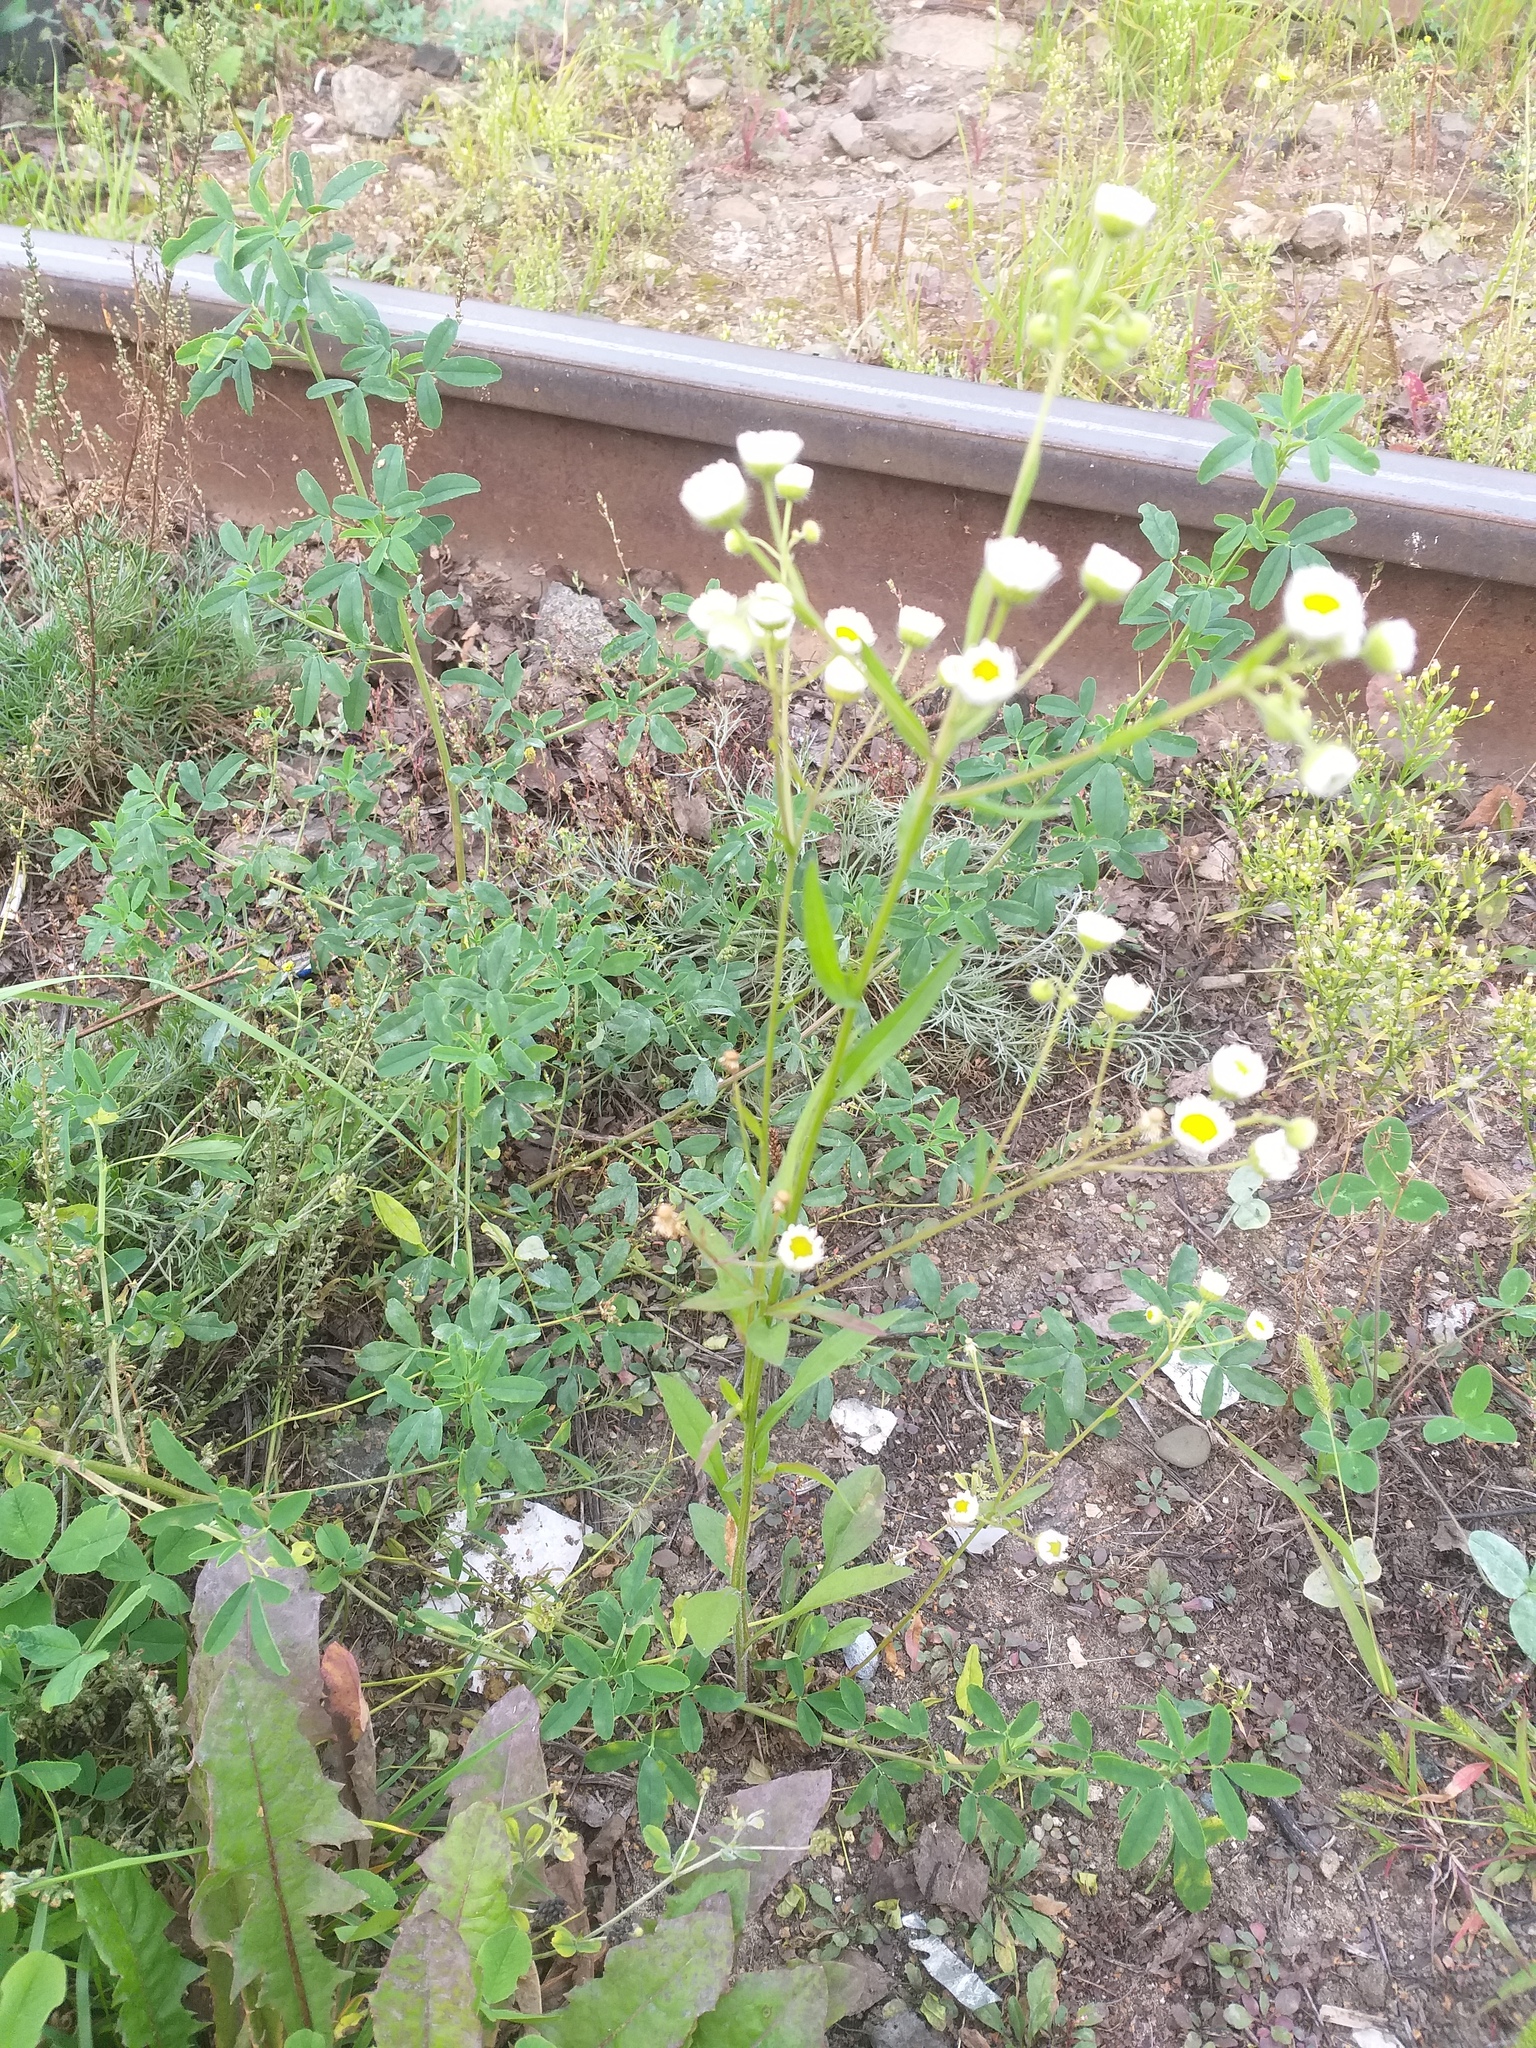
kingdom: Plantae
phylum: Tracheophyta
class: Magnoliopsida
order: Asterales
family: Asteraceae
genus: Erigeron
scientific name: Erigeron annuus
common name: Tall fleabane
